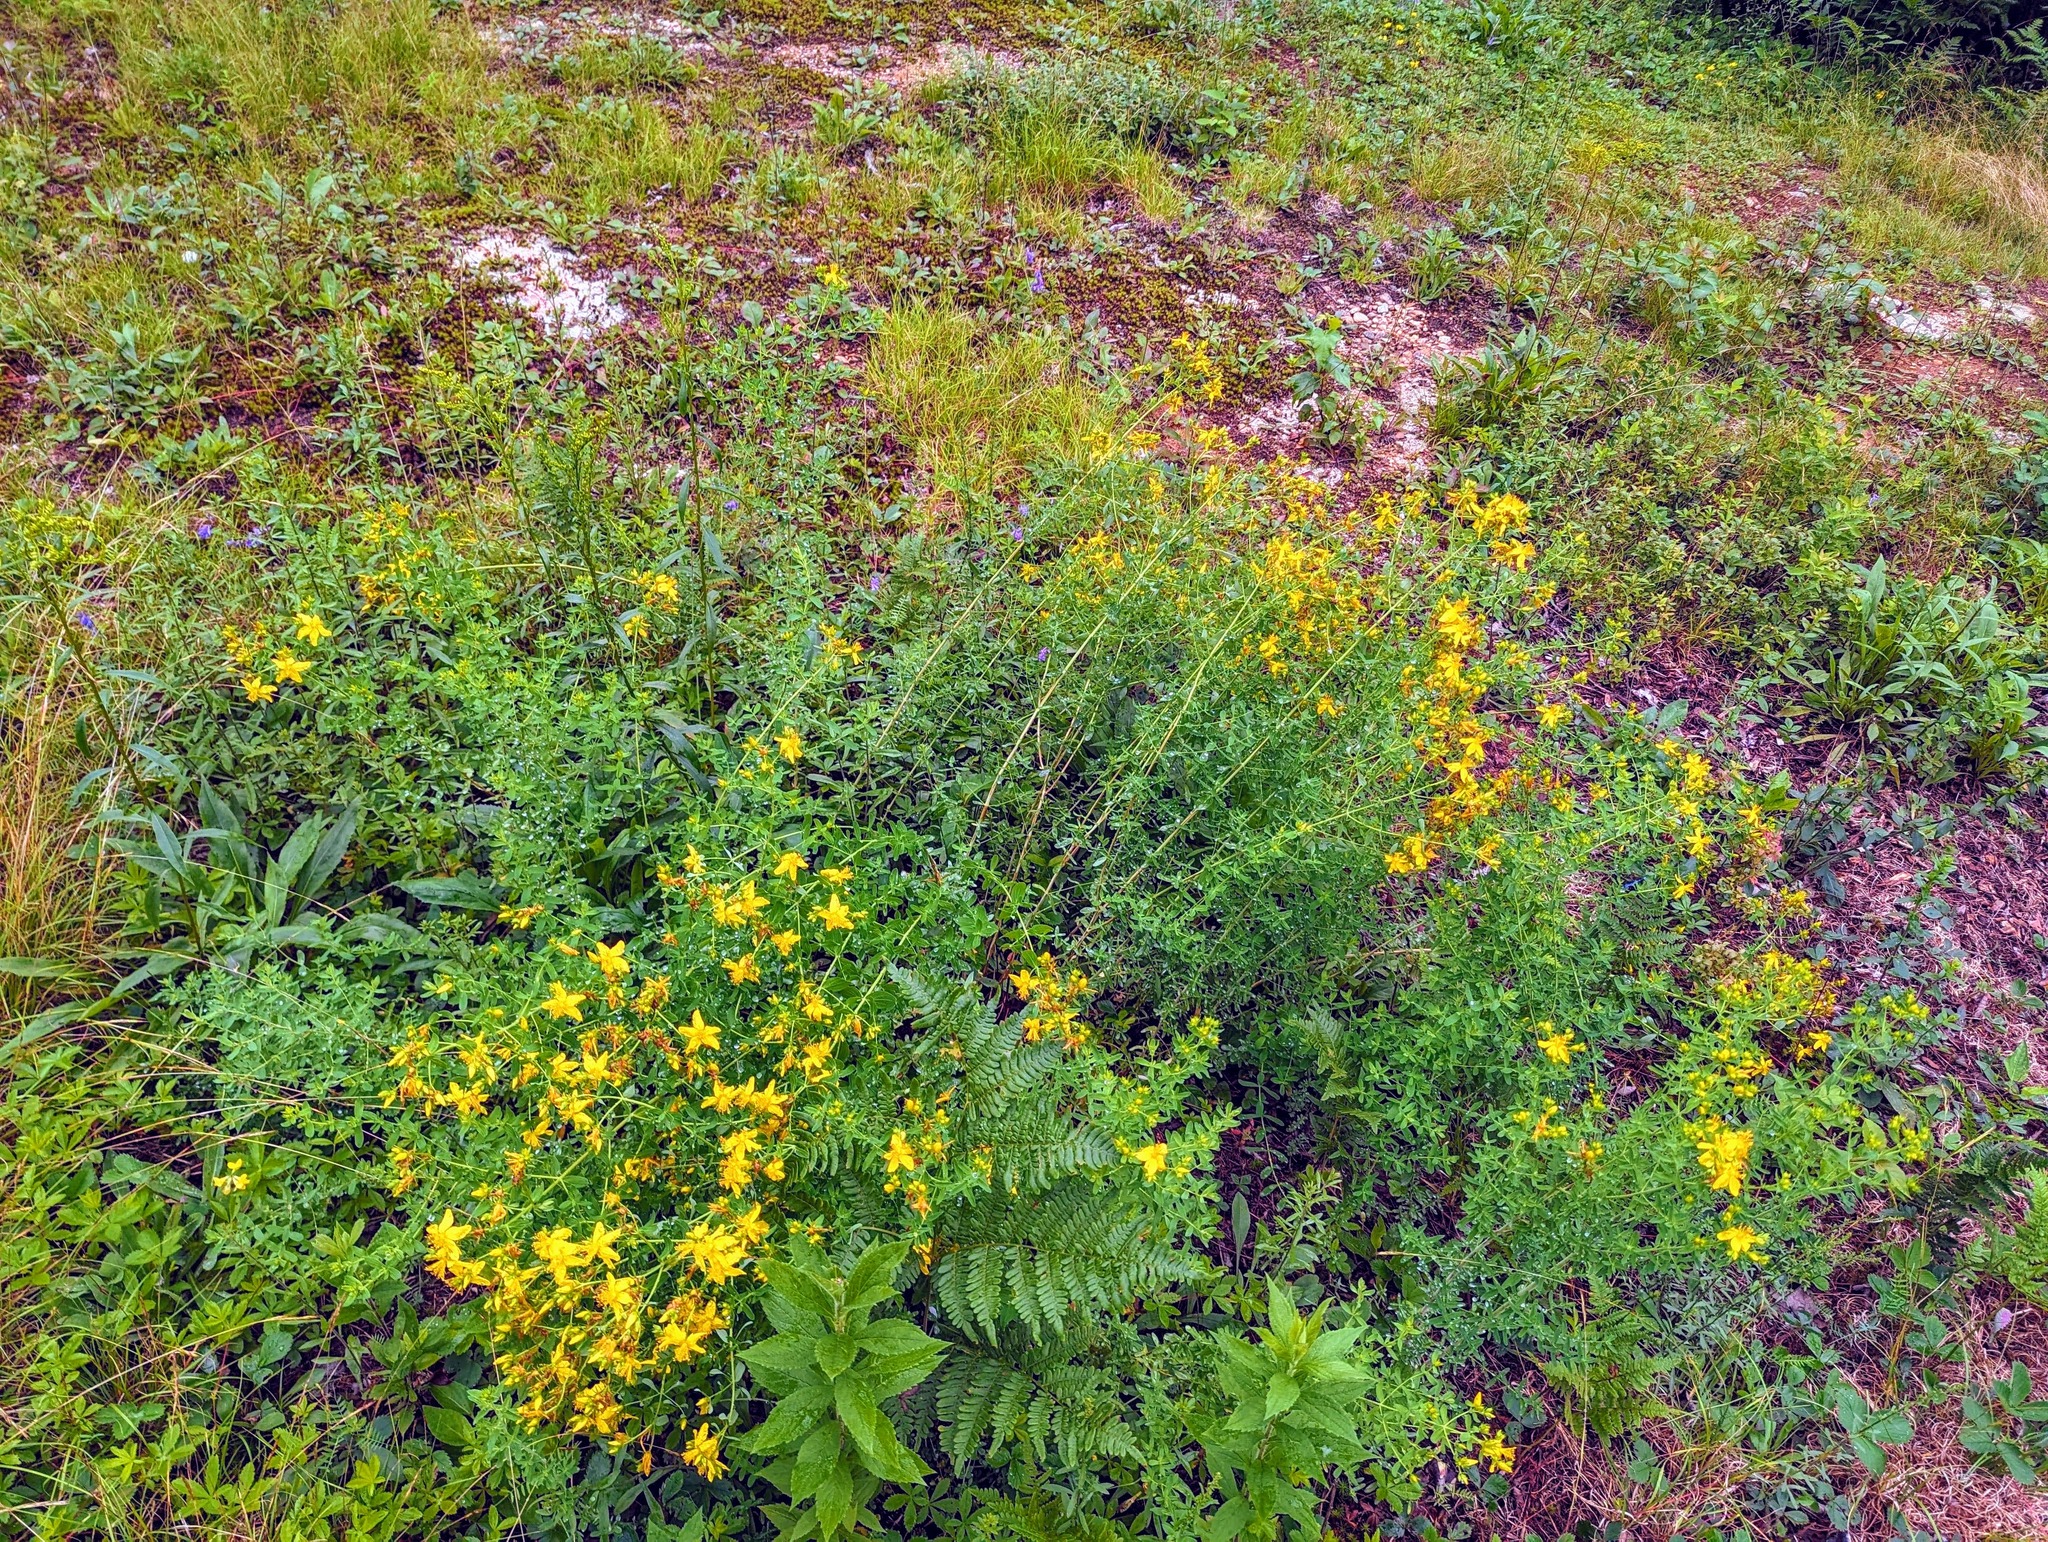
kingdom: Plantae
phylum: Tracheophyta
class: Magnoliopsida
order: Malpighiales
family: Hypericaceae
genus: Hypericum
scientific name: Hypericum perforatum
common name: Common st. johnswort
